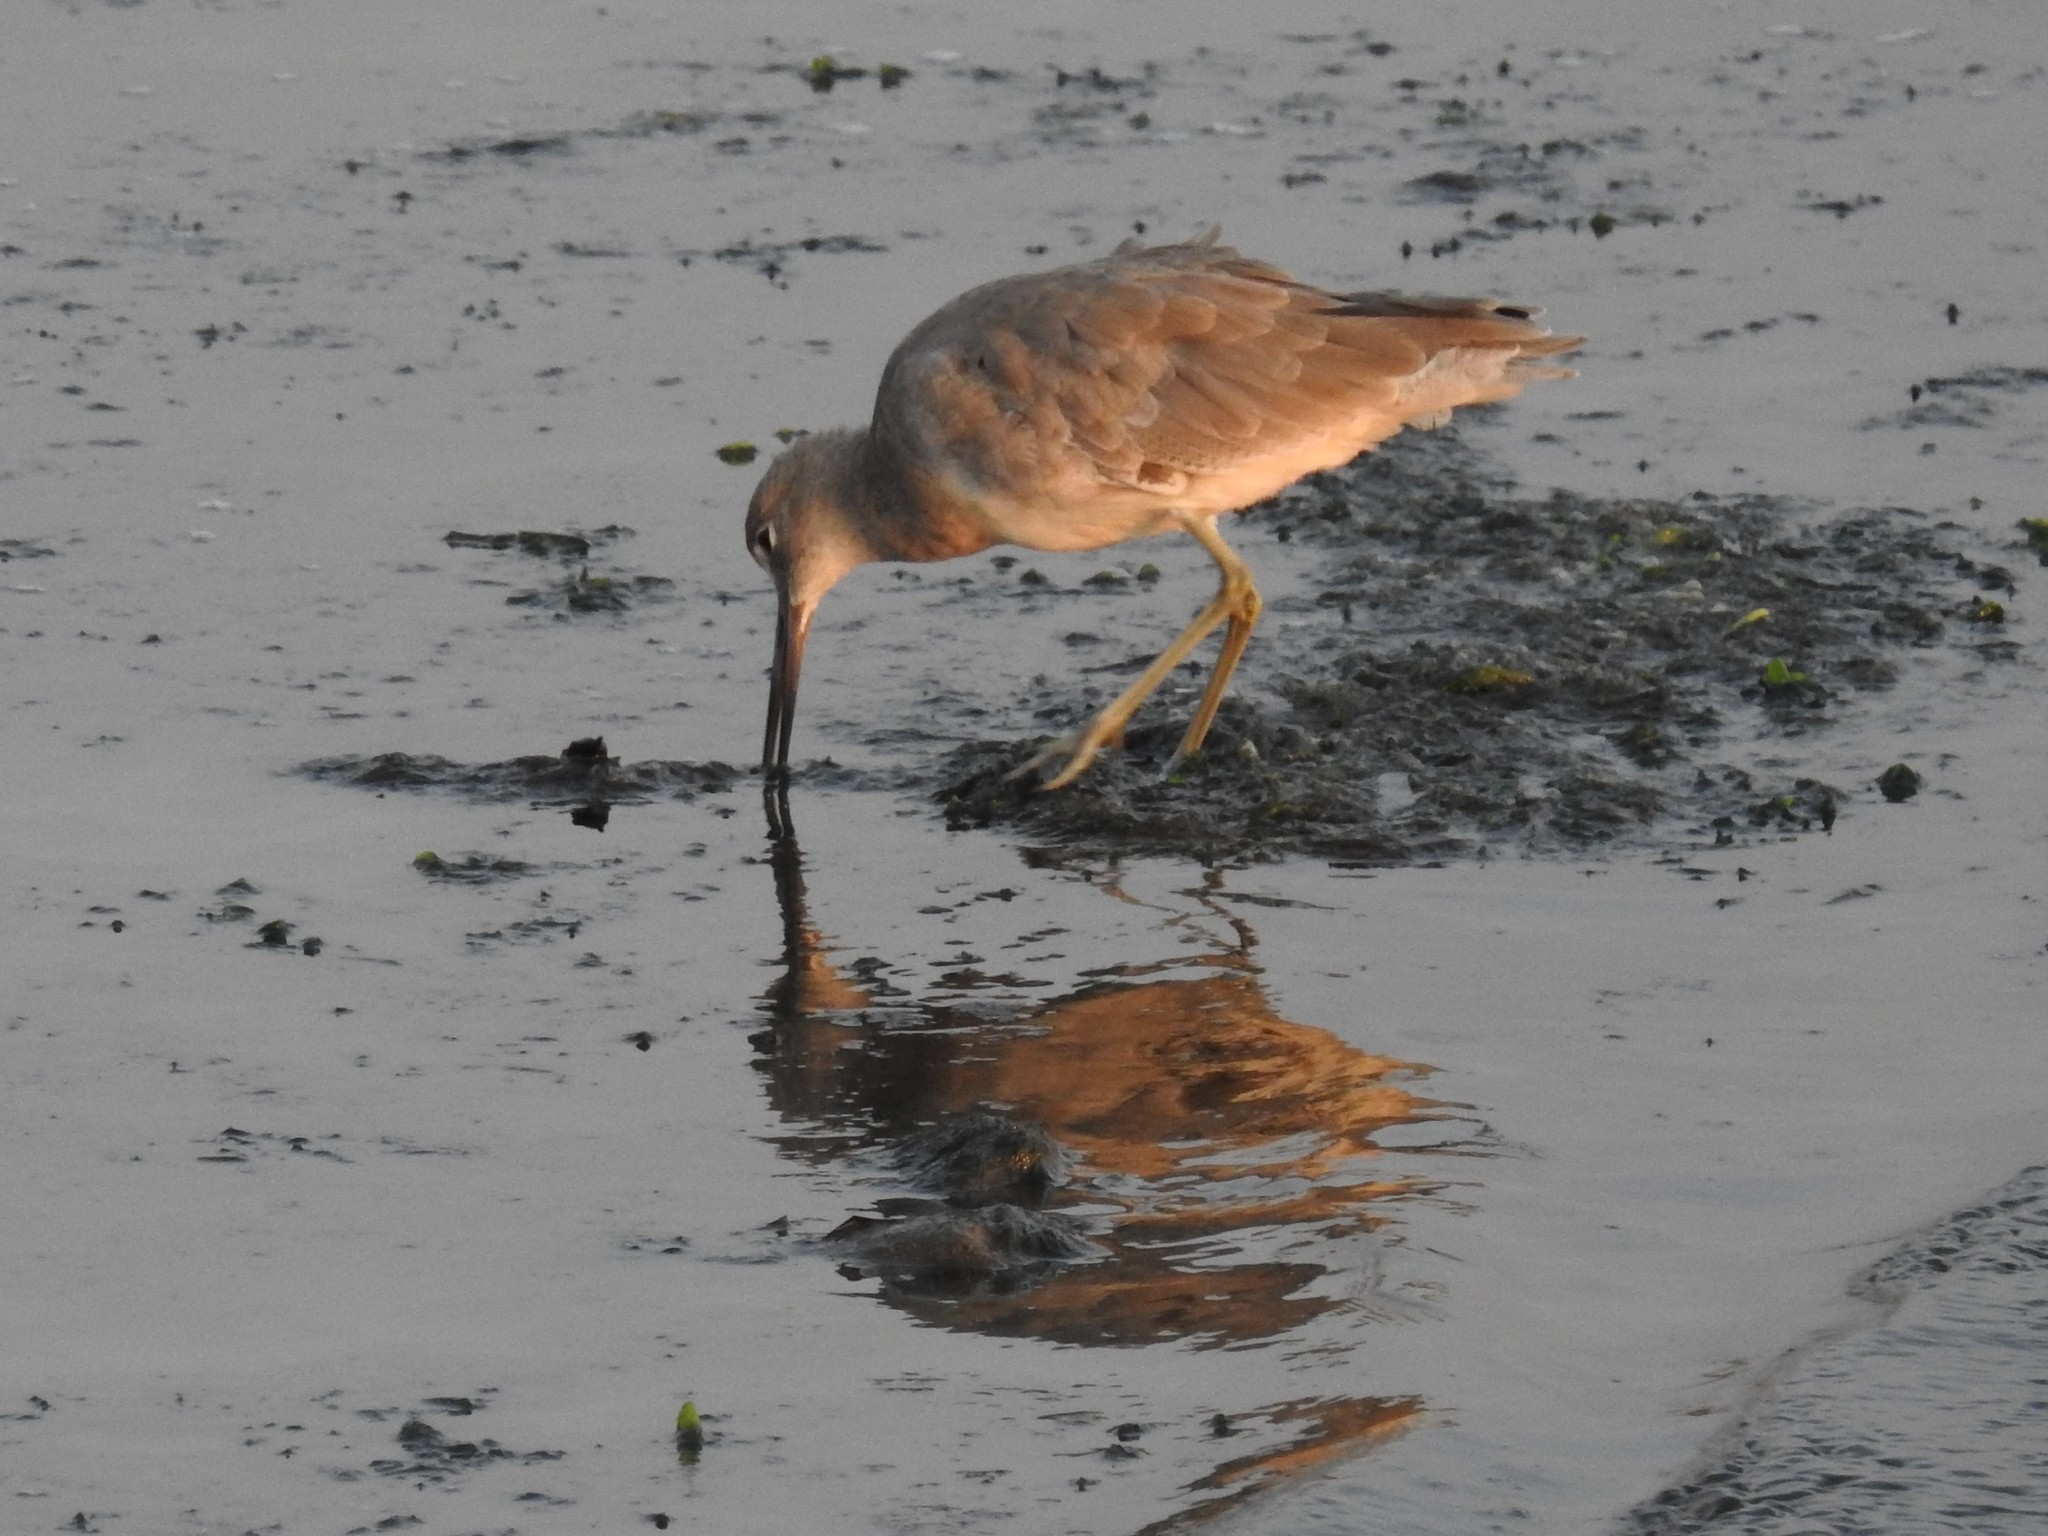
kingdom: Animalia
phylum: Chordata
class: Aves
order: Charadriiformes
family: Scolopacidae
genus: Tringa
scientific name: Tringa semipalmata
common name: Willet
